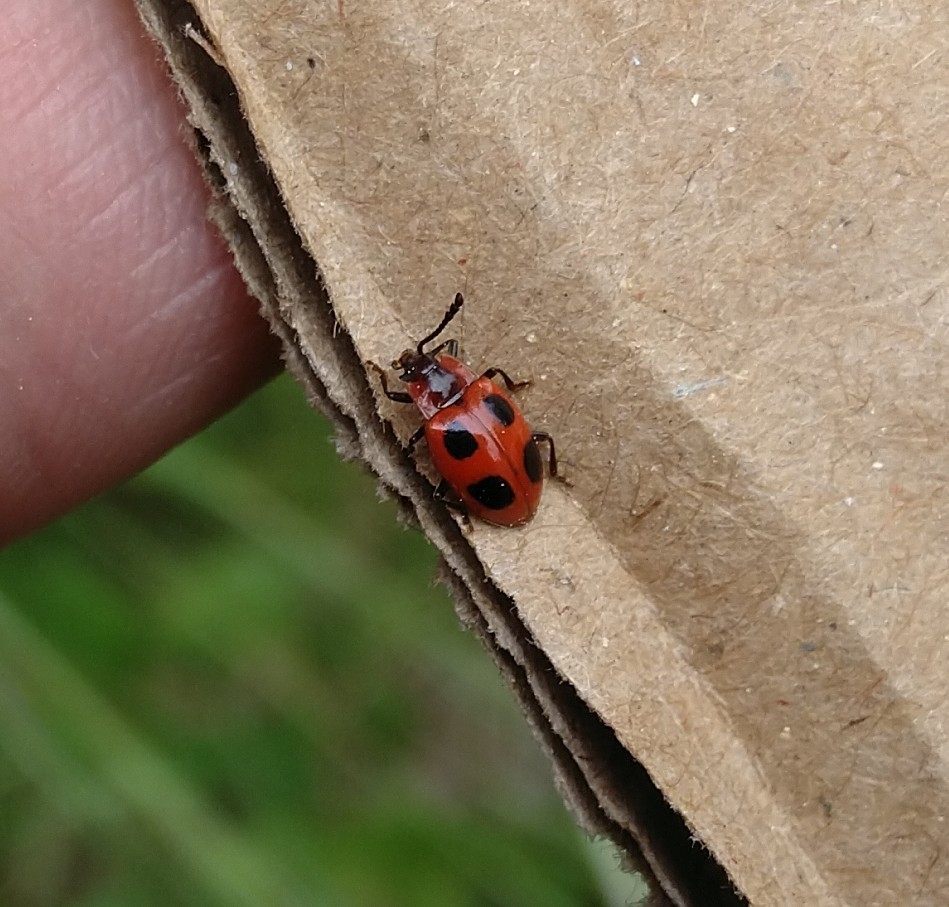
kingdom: Animalia
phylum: Arthropoda
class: Insecta
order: Coleoptera
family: Endomychidae
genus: Endomychus
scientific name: Endomychus coccineus
